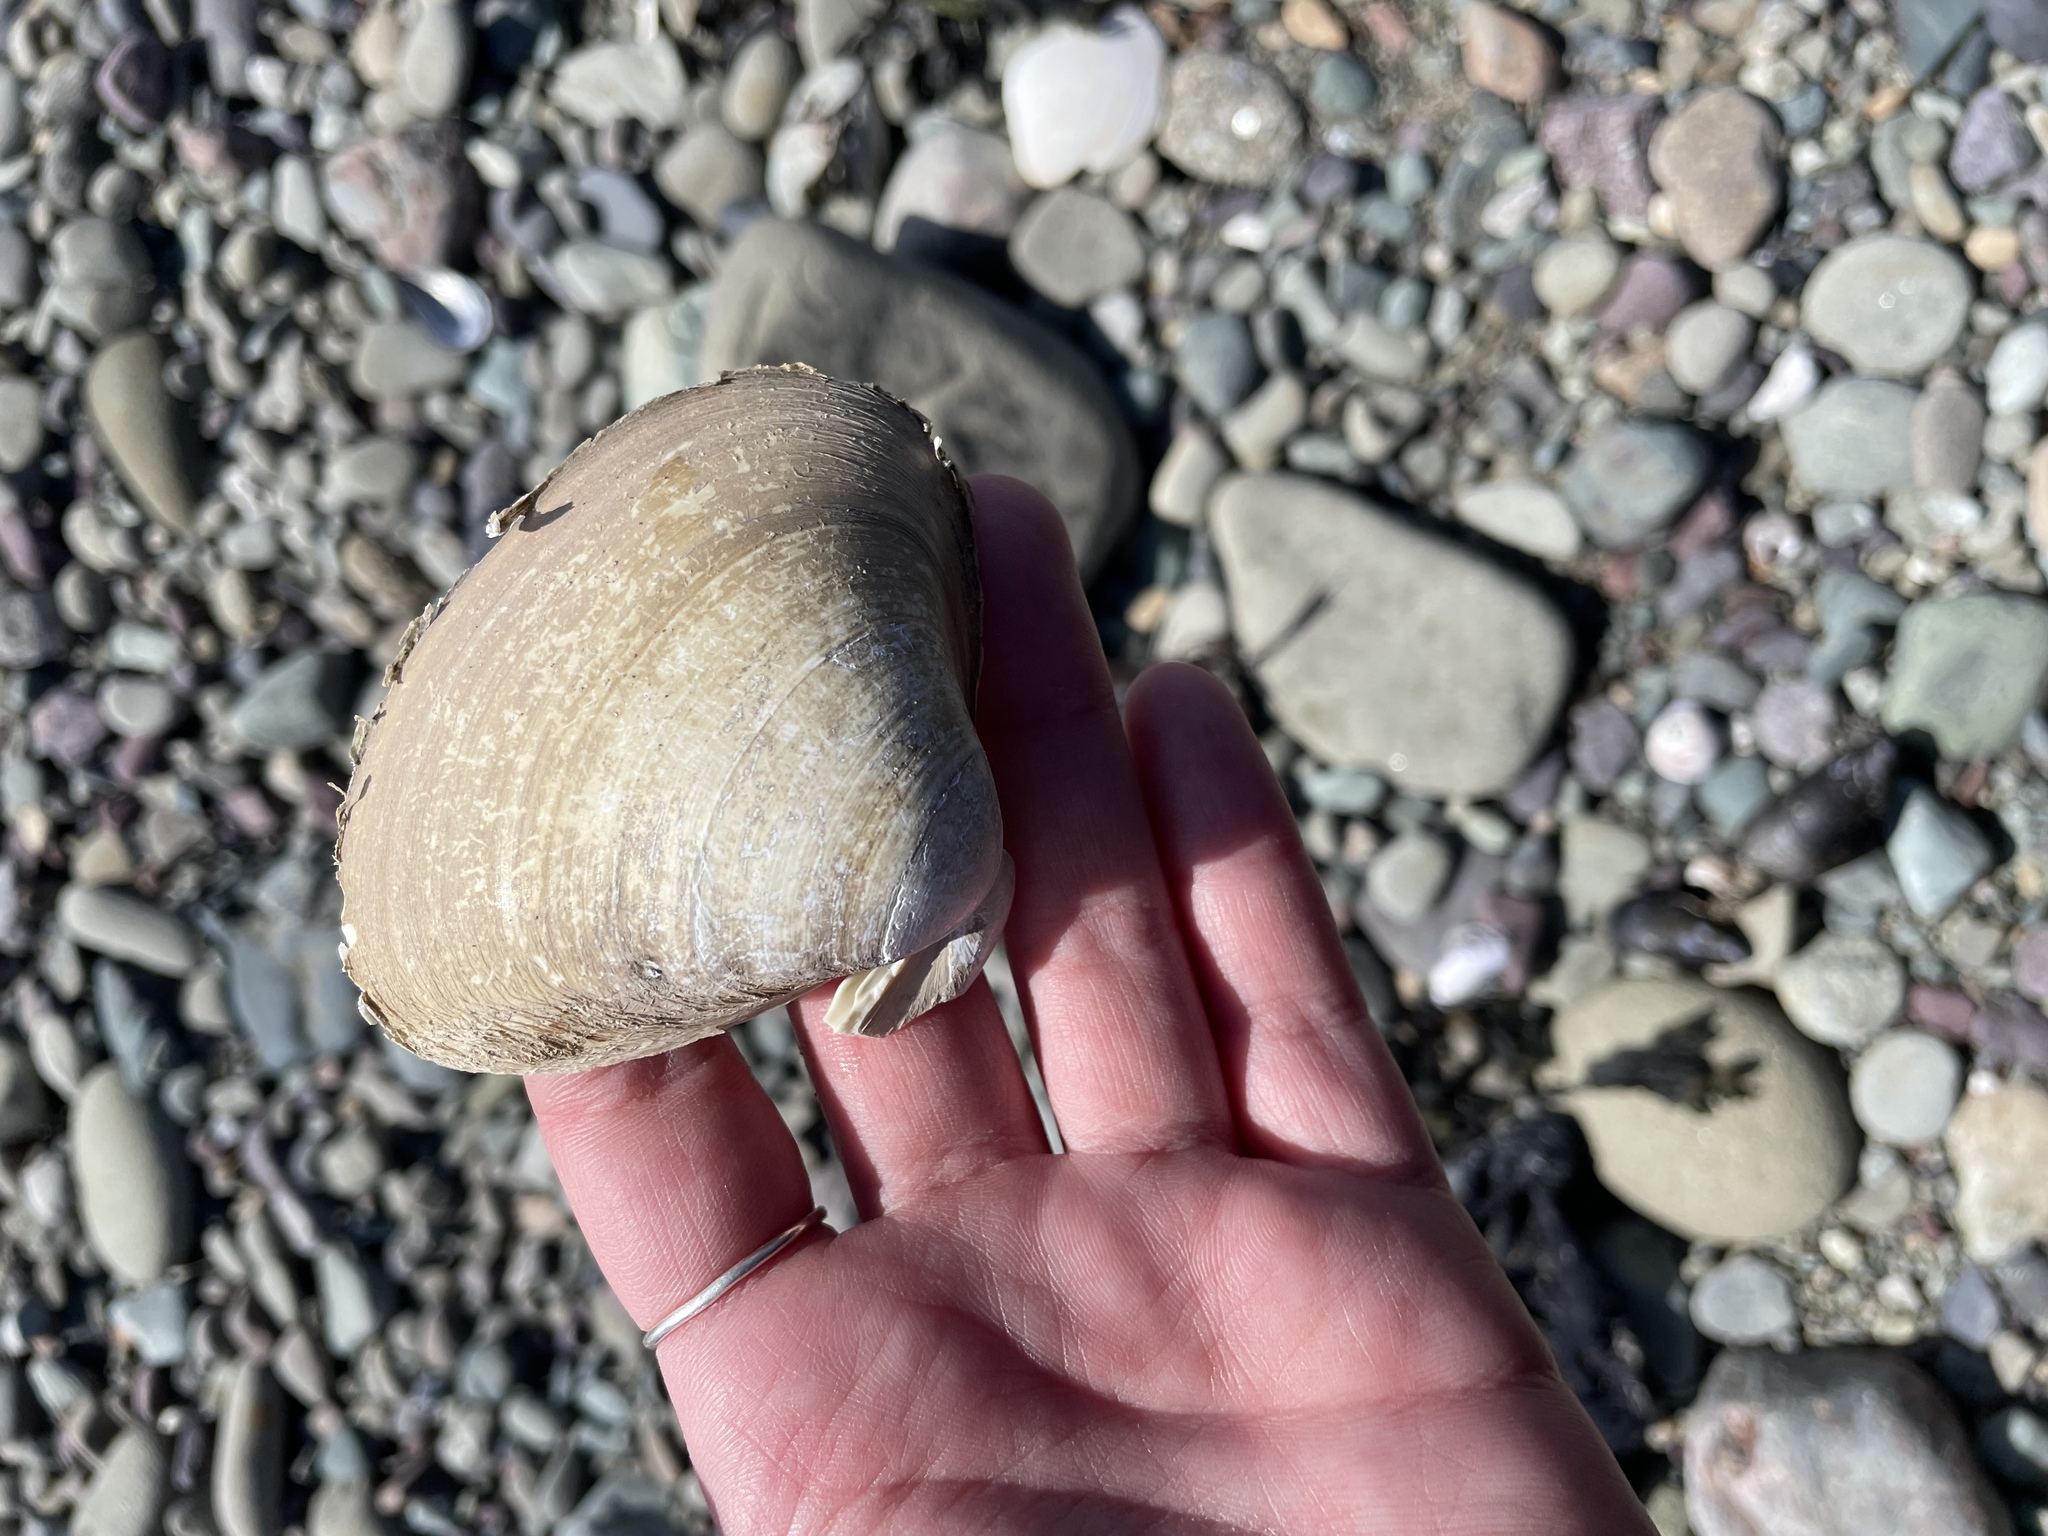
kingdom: Animalia
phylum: Mollusca
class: Bivalvia
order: Venerida
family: Mactridae
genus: Spisula
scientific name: Spisula solidissima
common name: Atlantic surf clam
